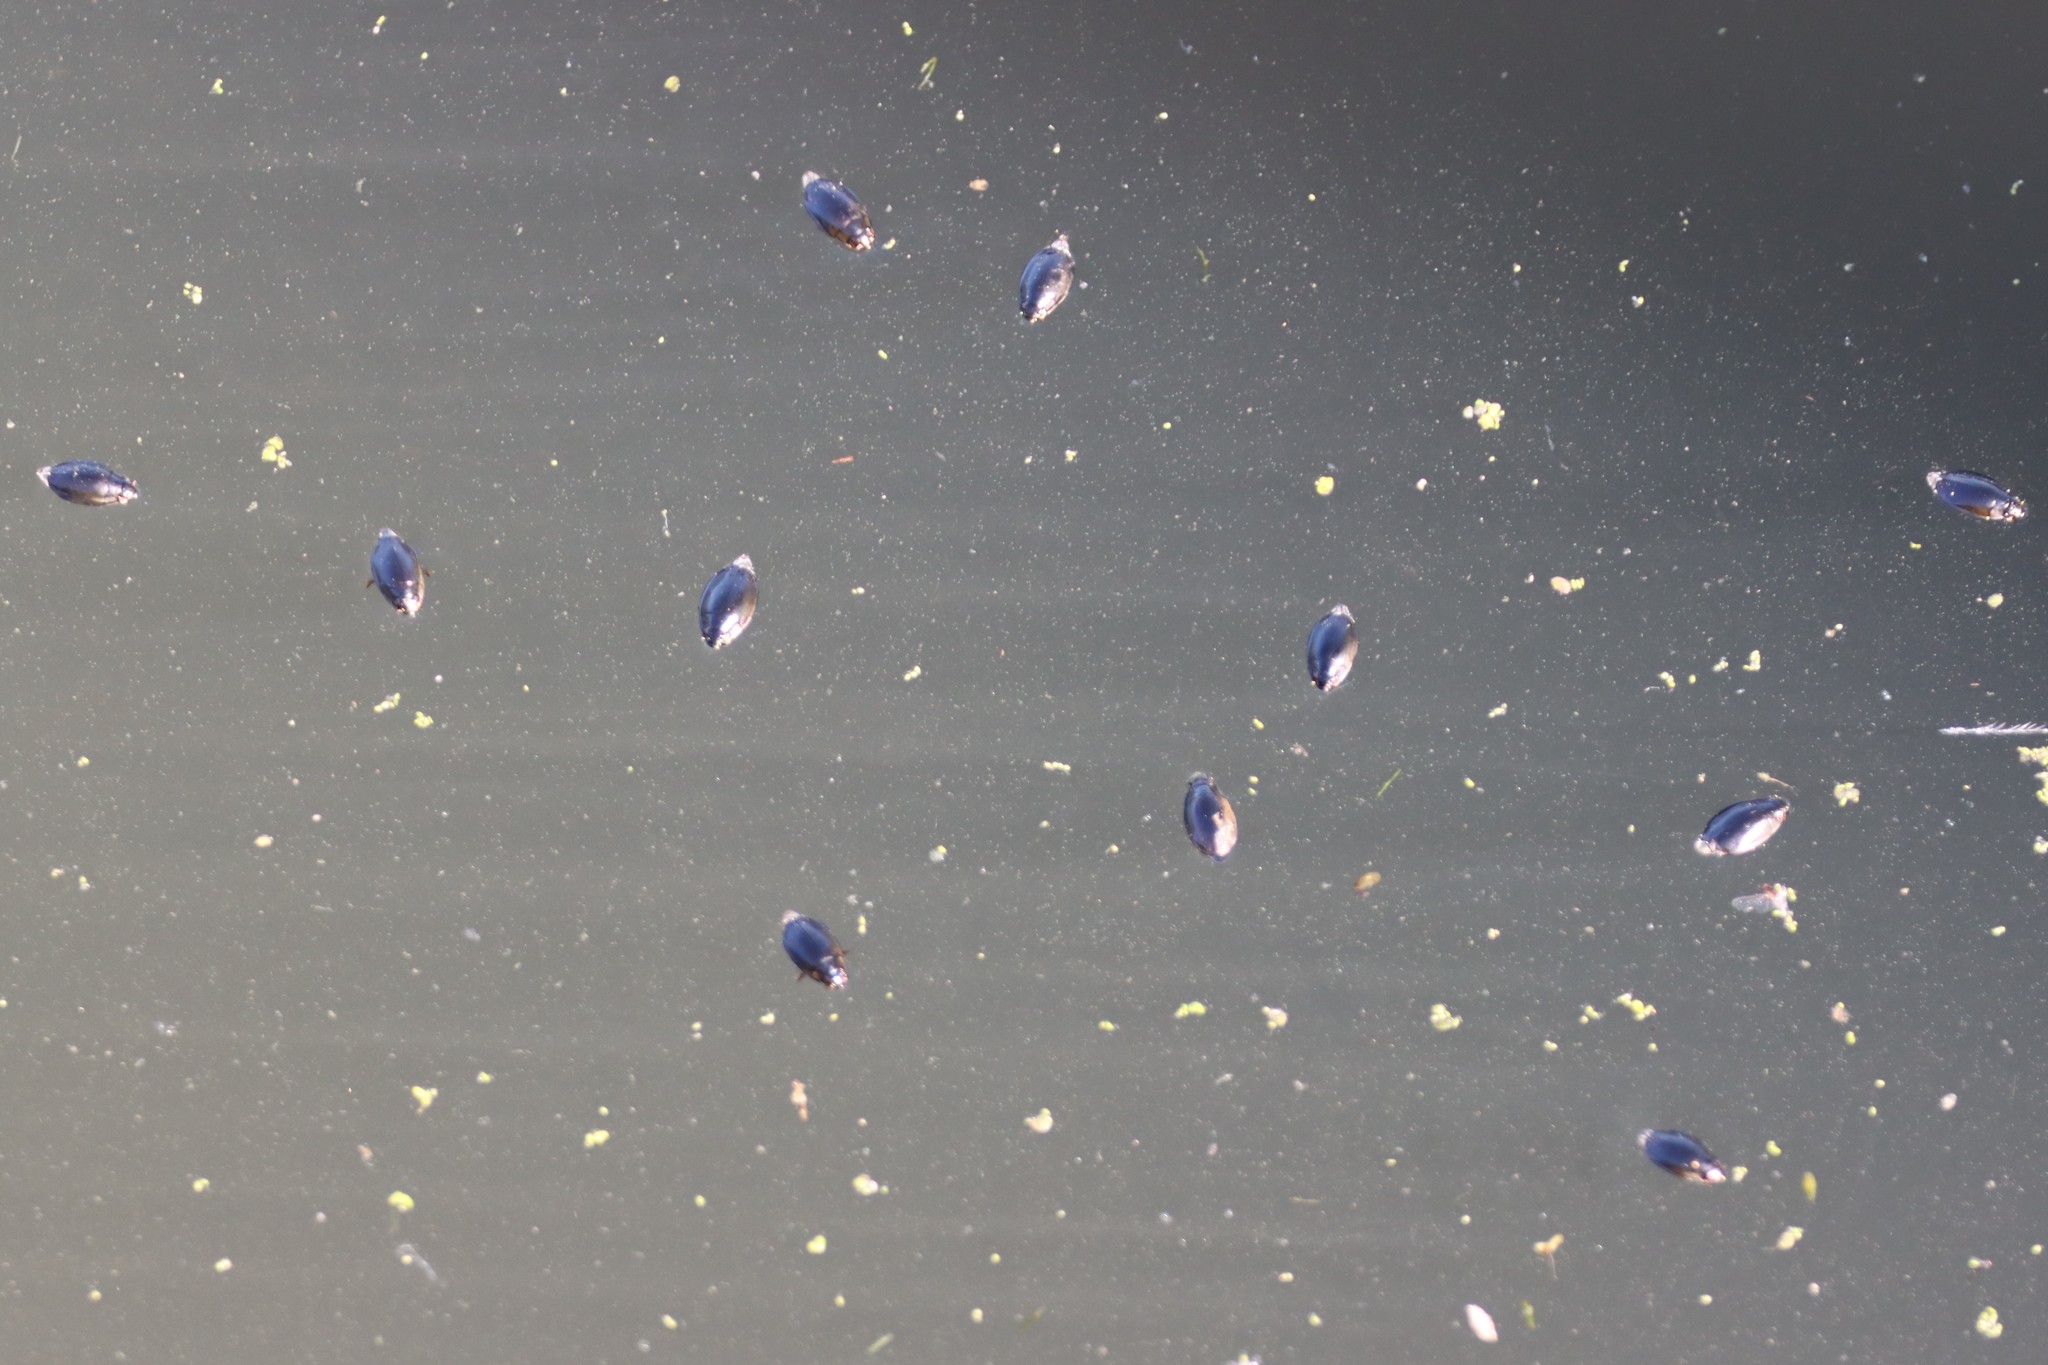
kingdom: Animalia
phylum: Arthropoda
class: Insecta
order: Coleoptera
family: Gyrinidae
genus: Dineutus
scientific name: Dineutus
